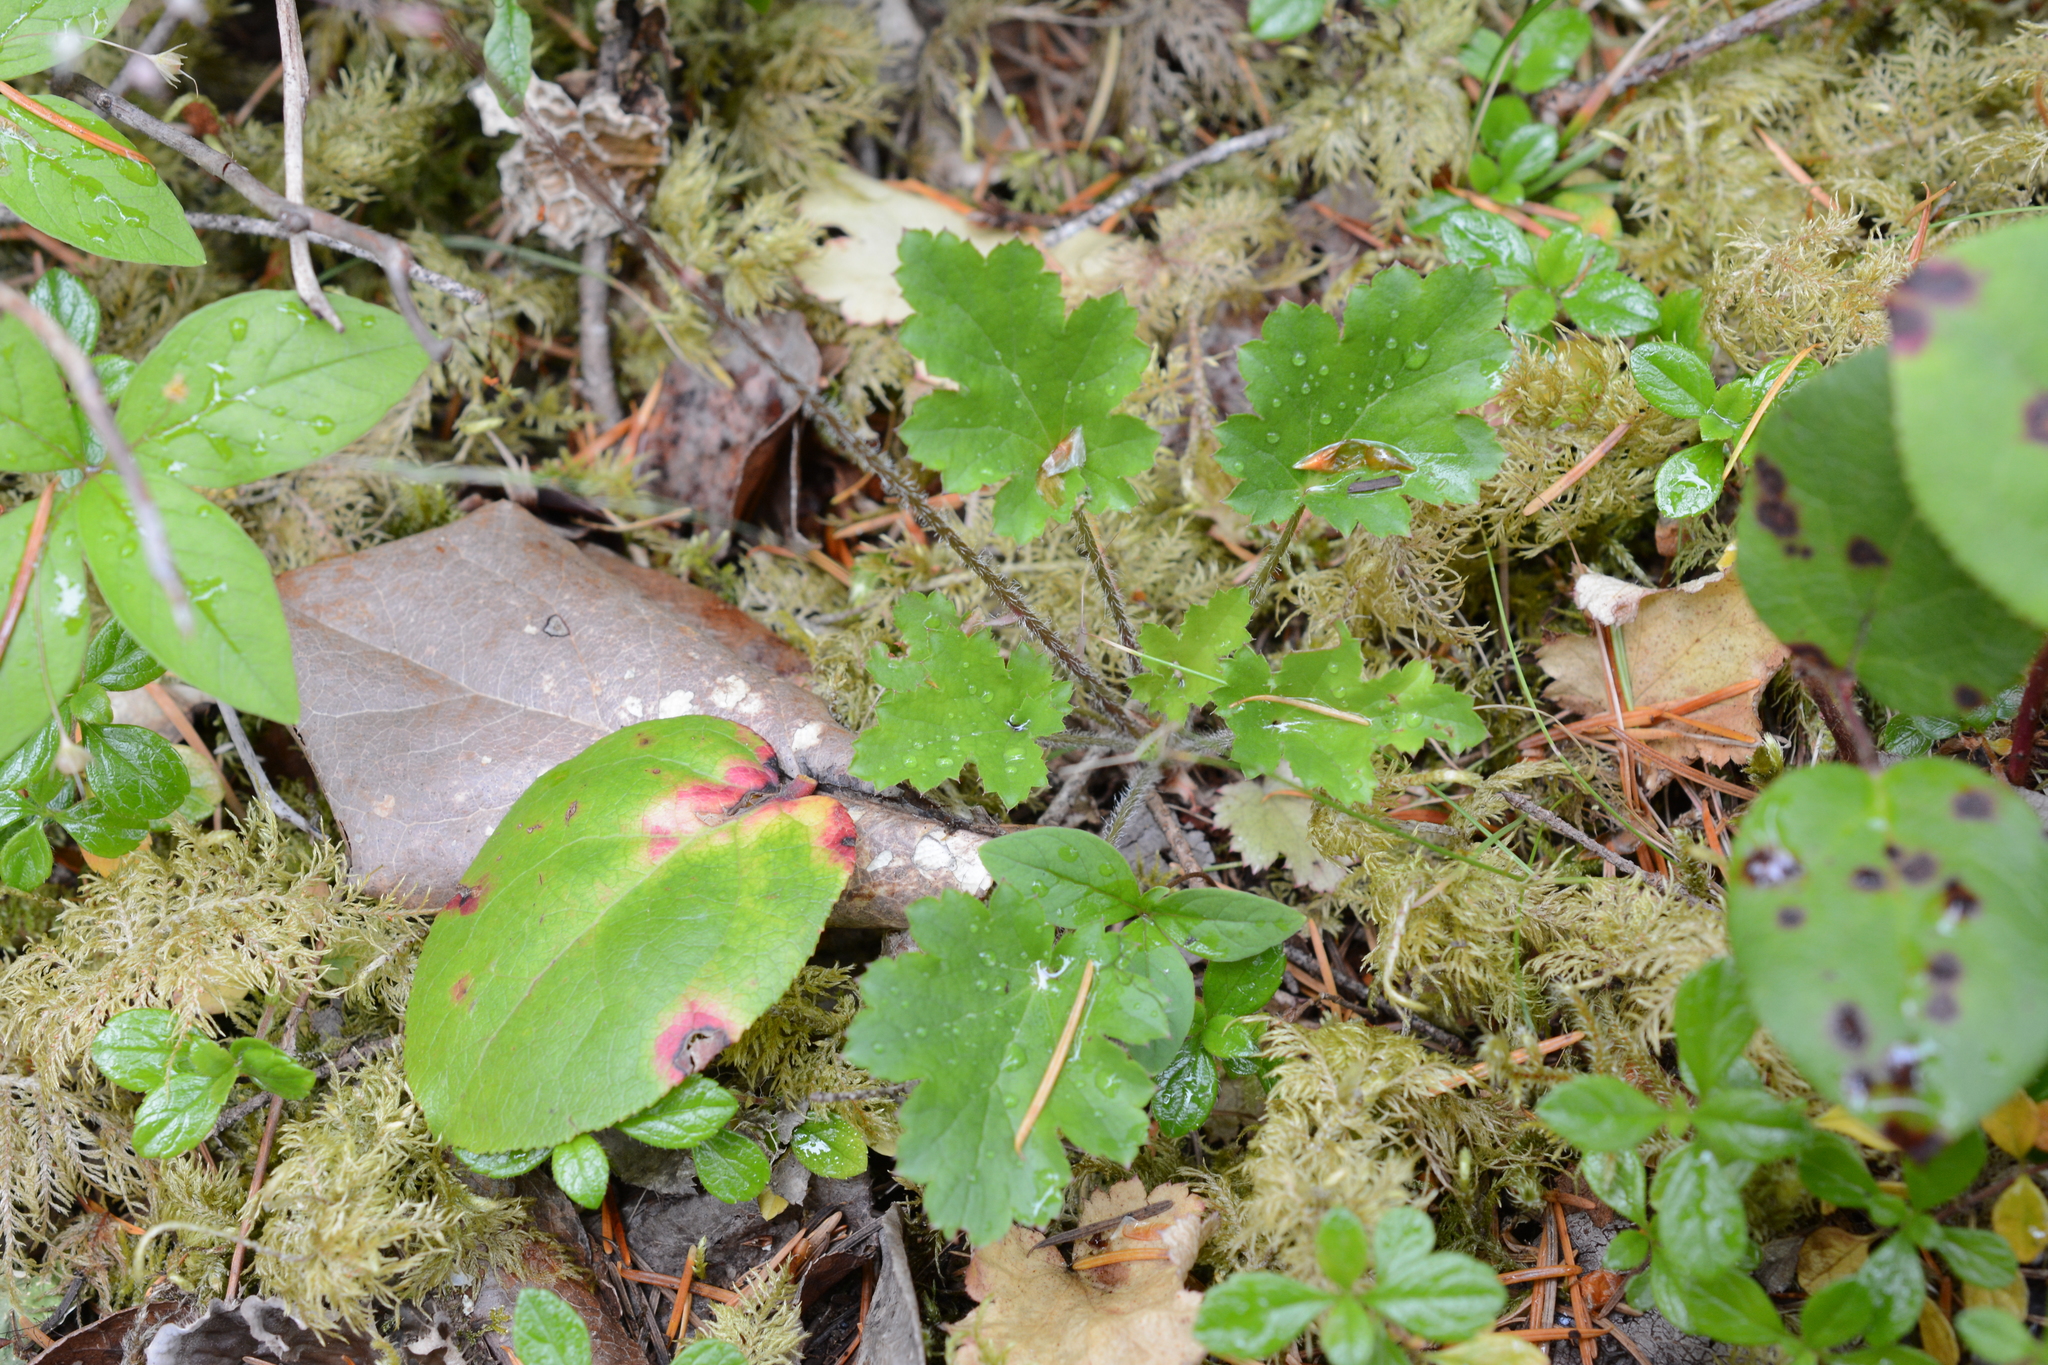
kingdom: Plantae
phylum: Tracheophyta
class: Magnoliopsida
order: Saxifragales
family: Saxifragaceae
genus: Heuchera
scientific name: Heuchera micrantha
